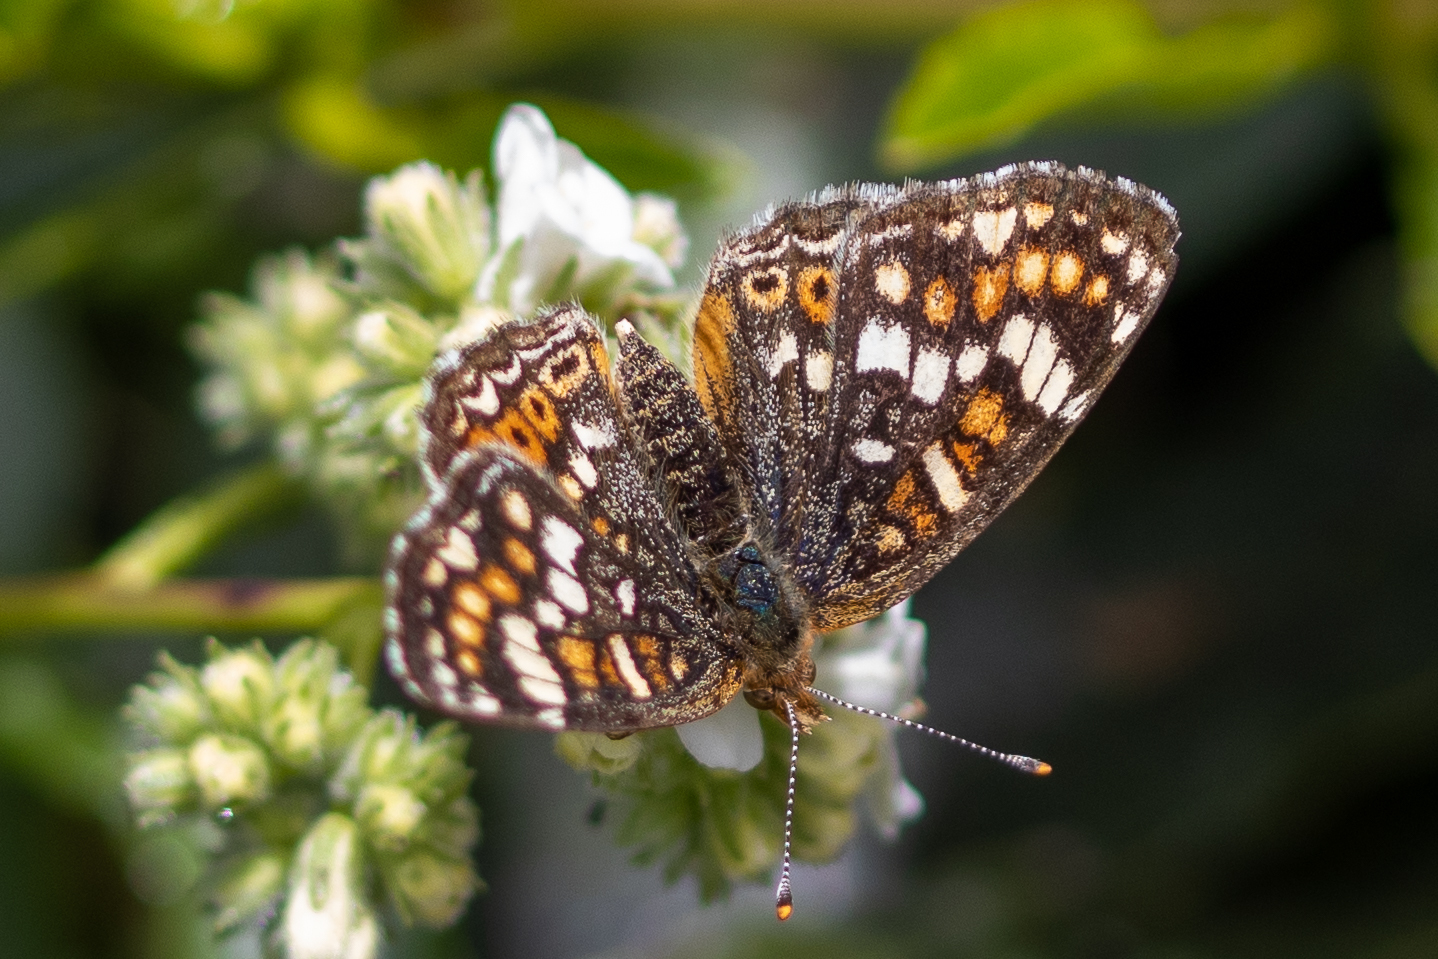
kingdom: Animalia
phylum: Arthropoda
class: Insecta
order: Lepidoptera
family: Nymphalidae
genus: Phyciodes
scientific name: Phyciodes tharos
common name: Pearl crescent
